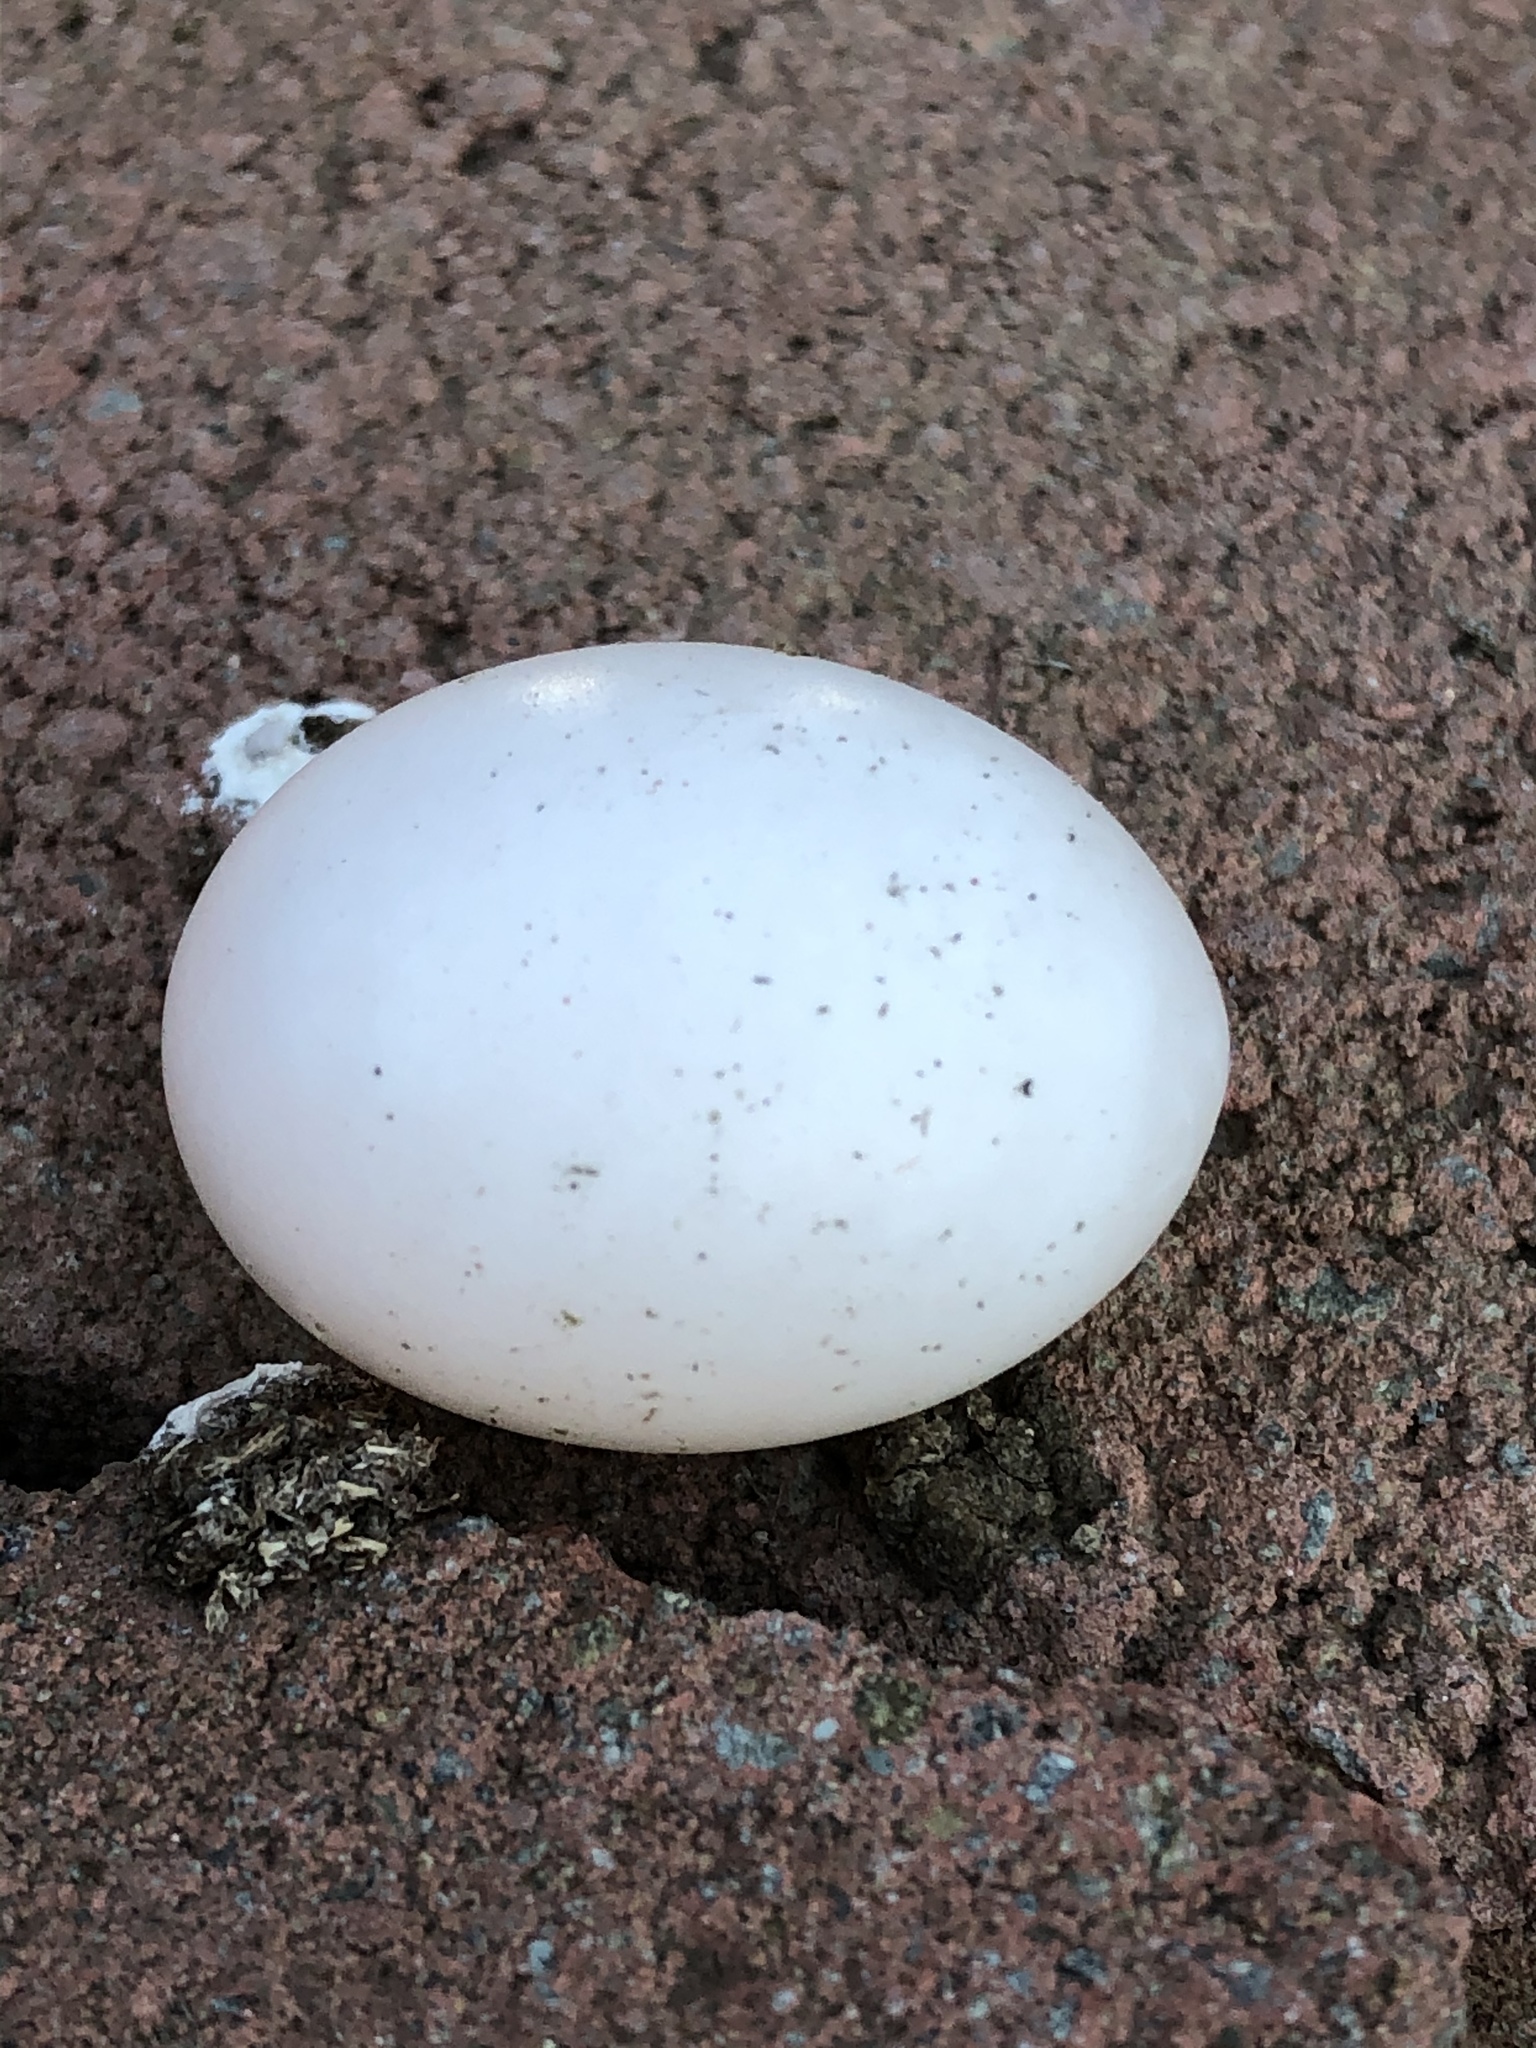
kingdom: Animalia
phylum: Chordata
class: Aves
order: Columbiformes
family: Columbidae
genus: Zenaida
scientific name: Zenaida macroura
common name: Mourning dove
